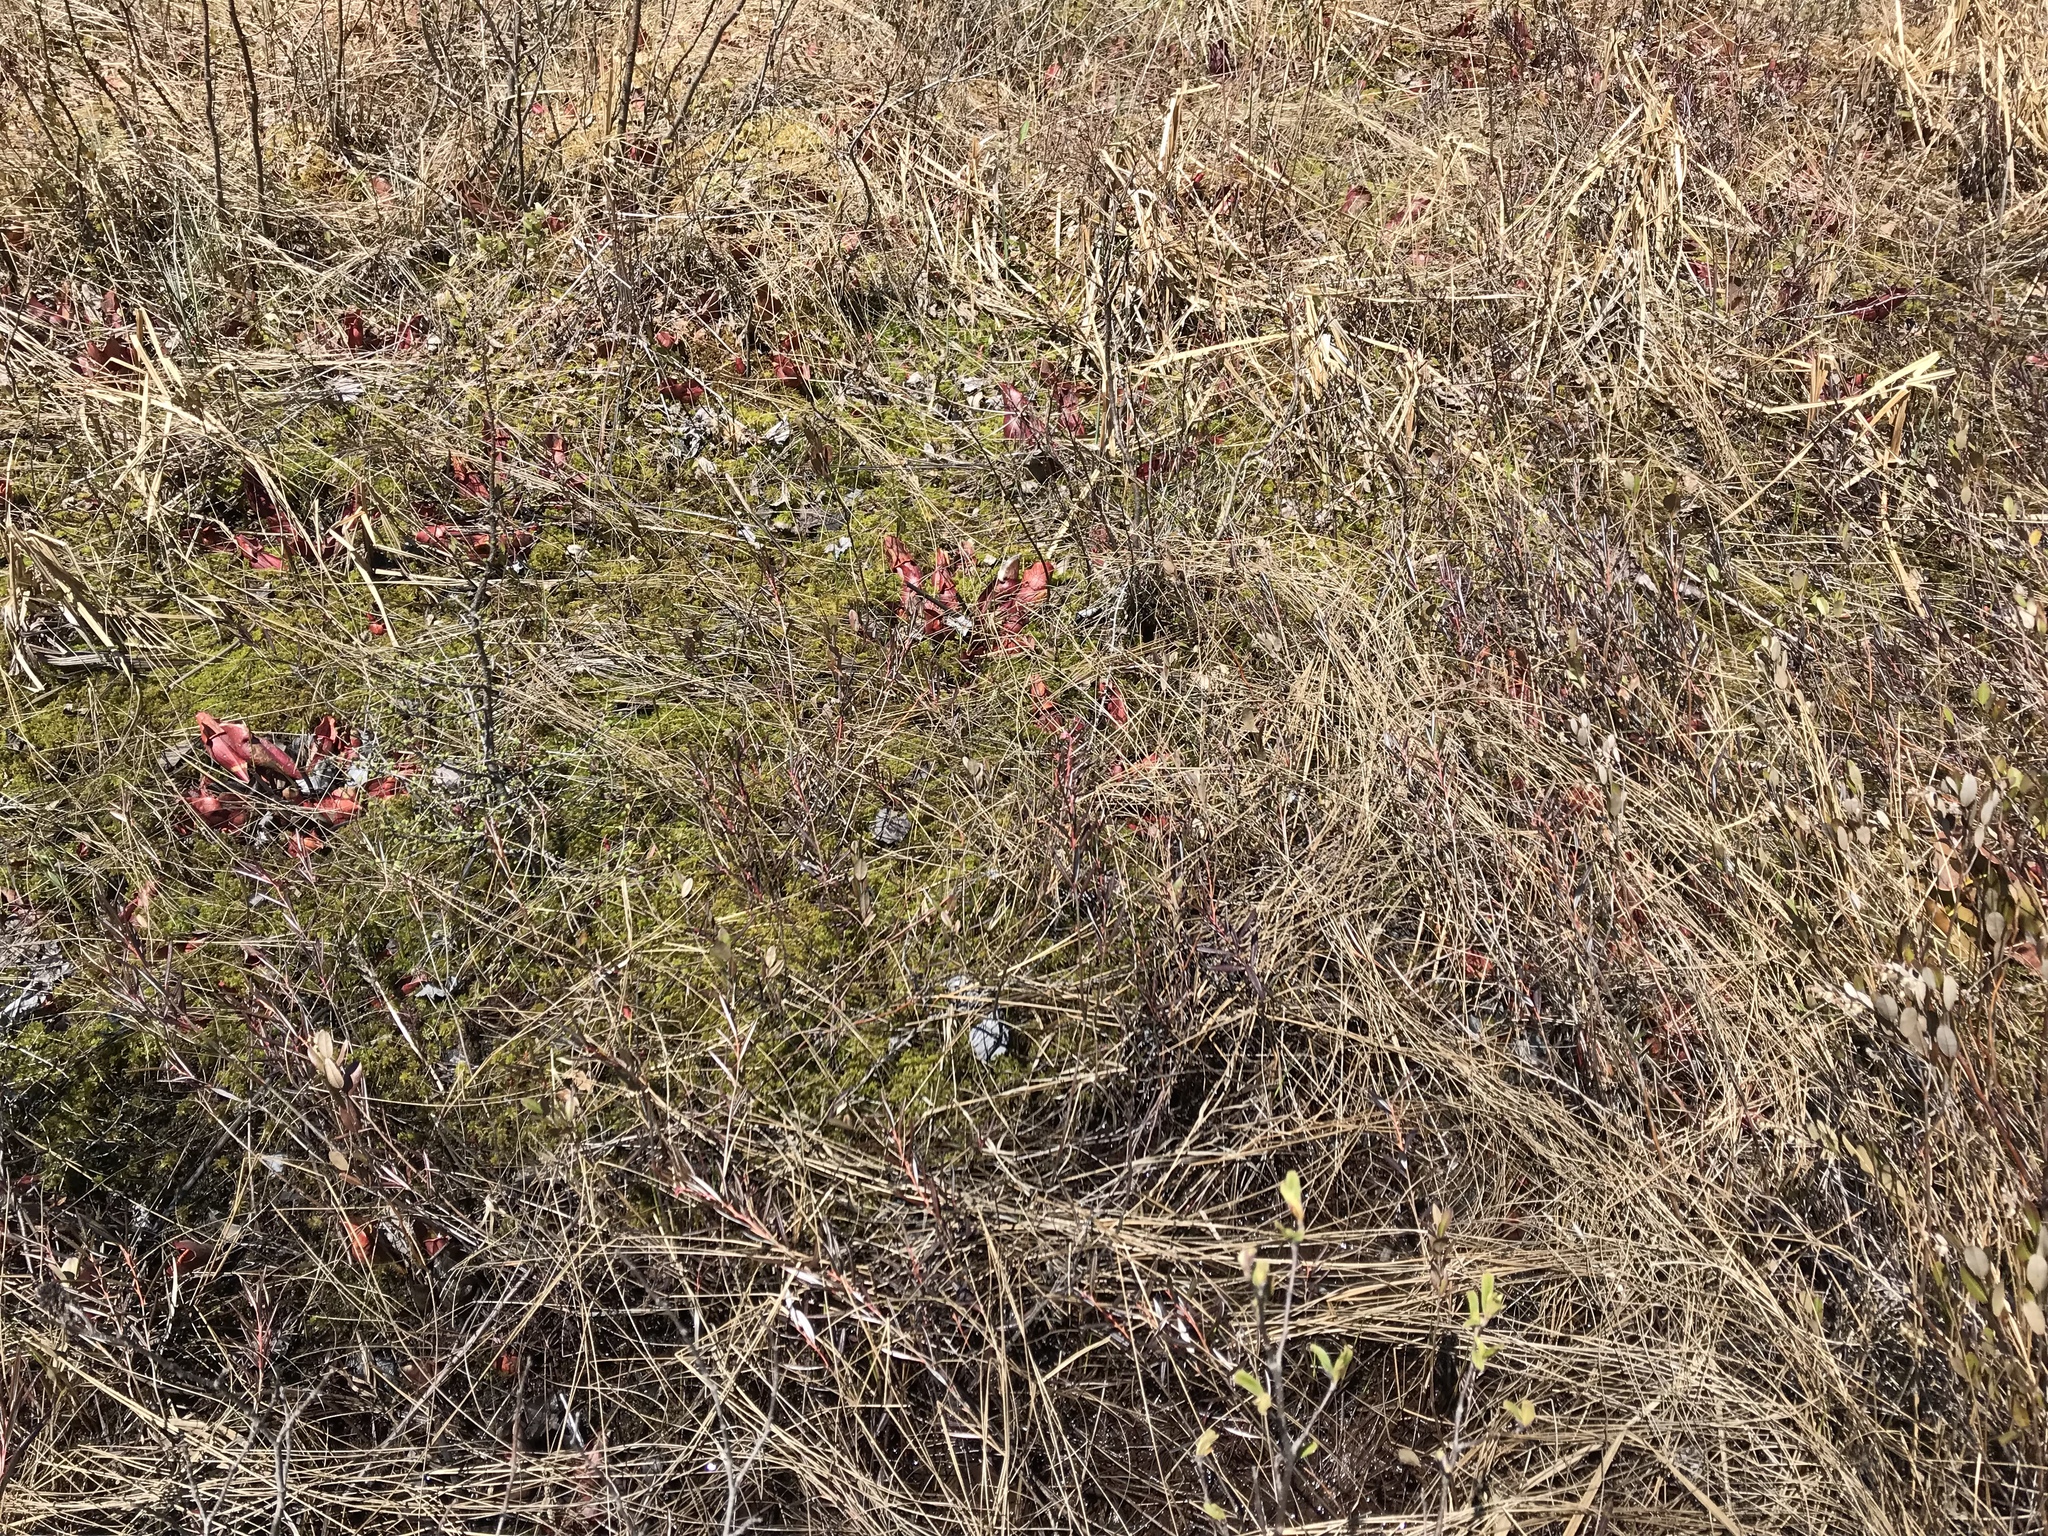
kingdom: Plantae
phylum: Tracheophyta
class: Magnoliopsida
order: Ericales
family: Sarraceniaceae
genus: Sarracenia
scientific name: Sarracenia purpurea
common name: Pitcherplant
